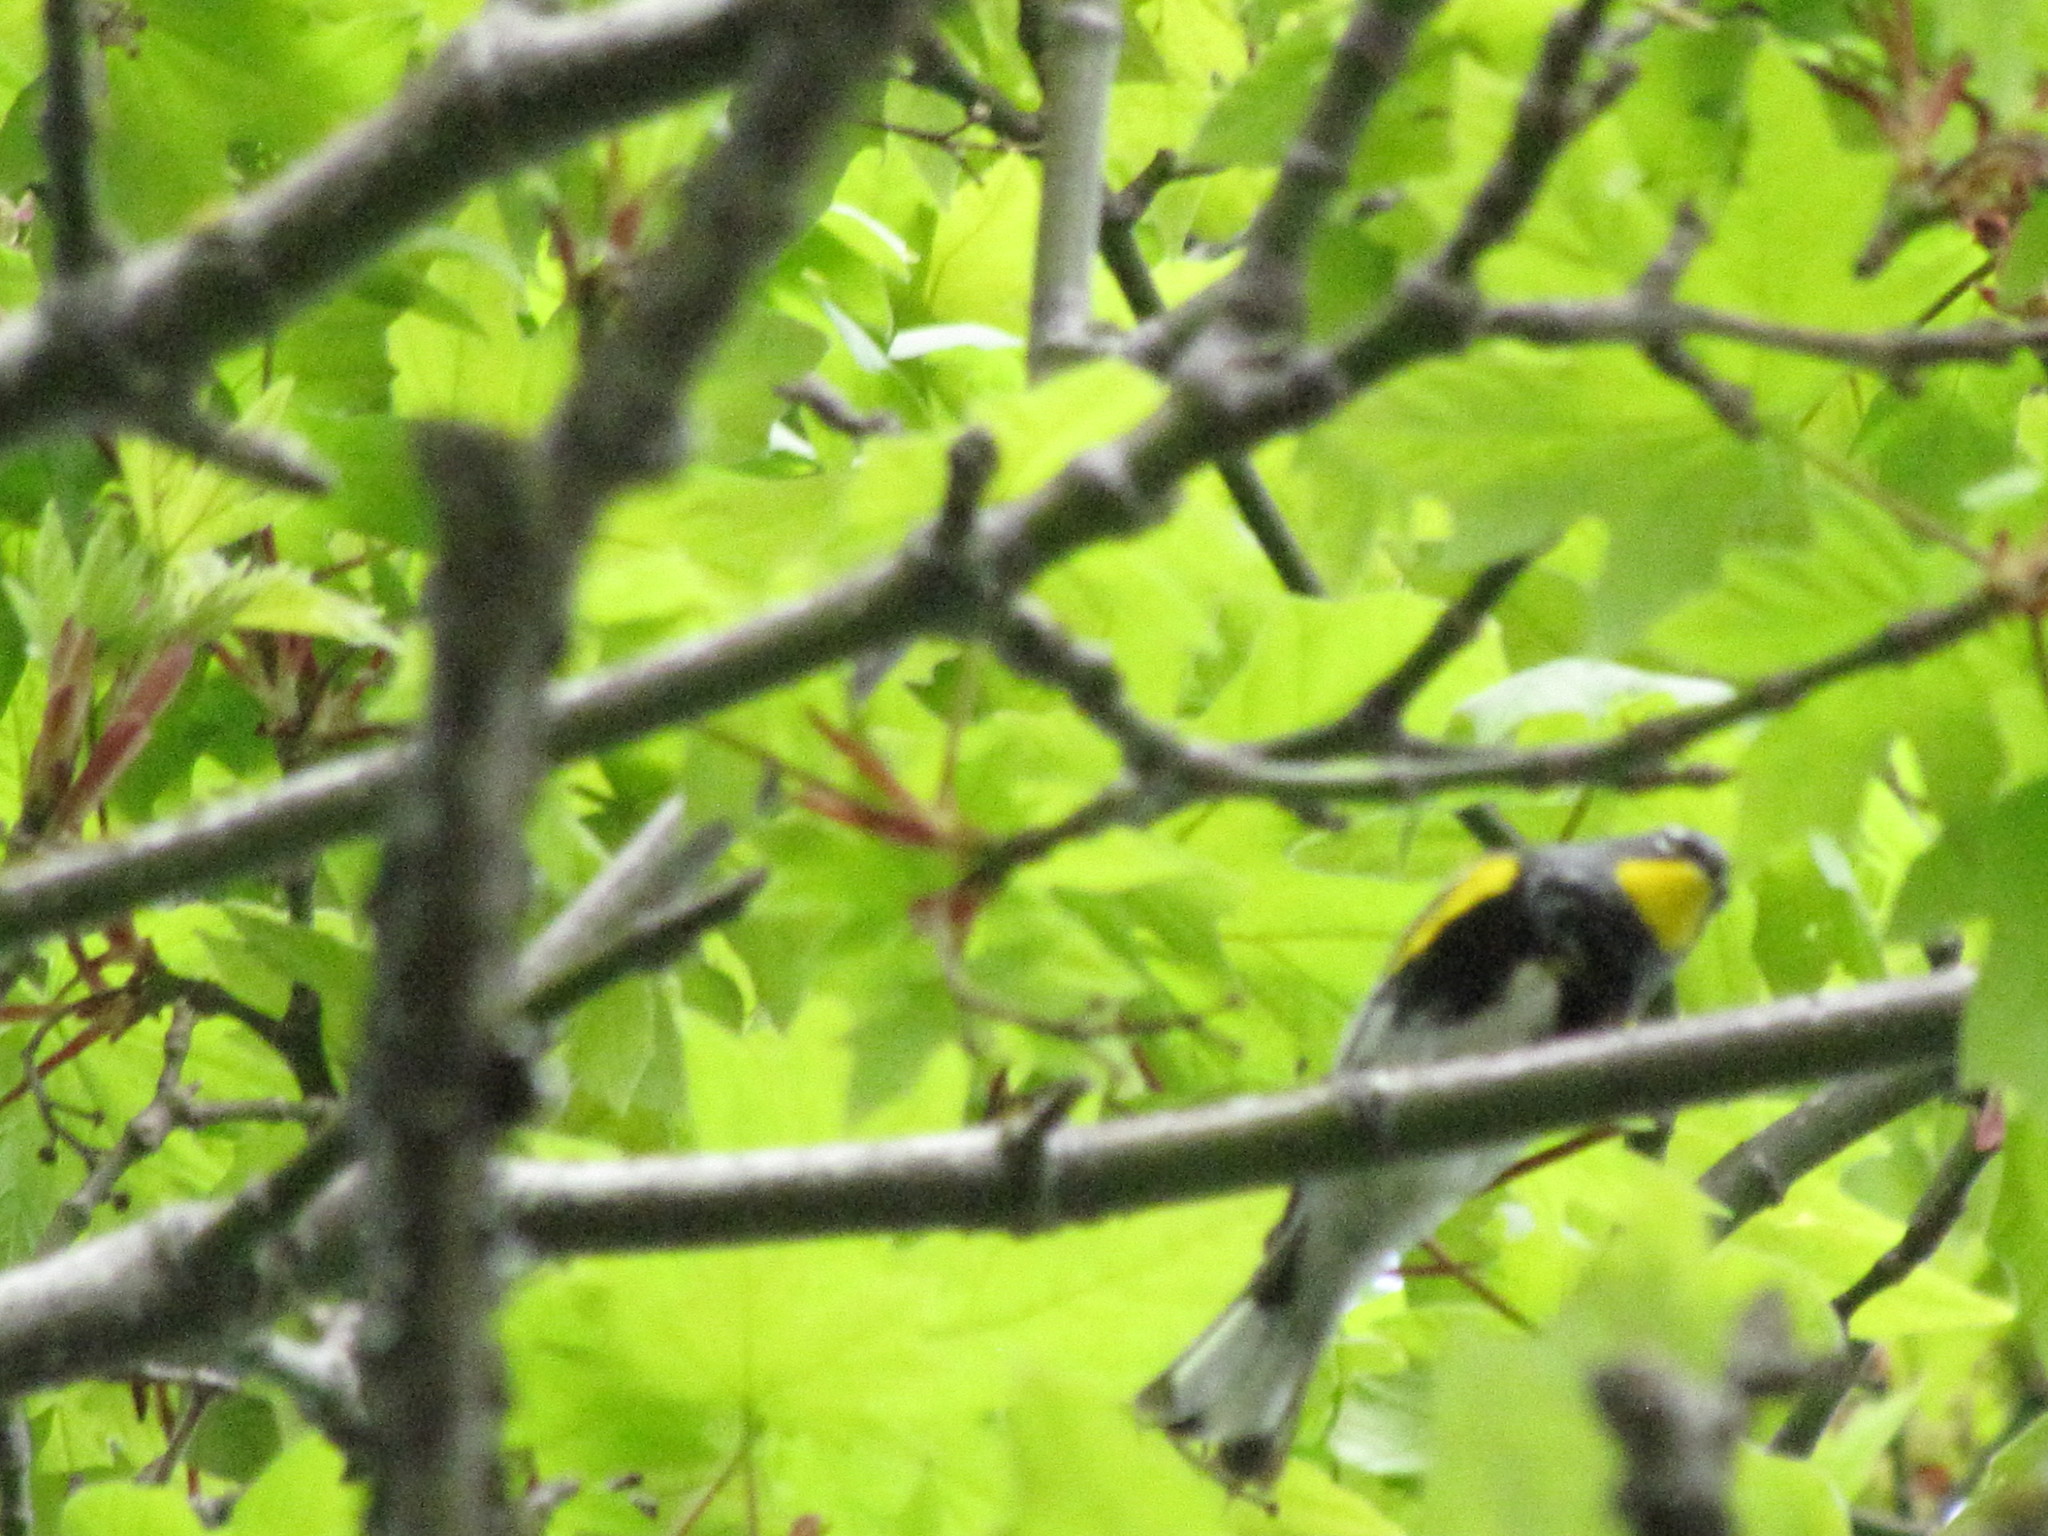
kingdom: Animalia
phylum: Chordata
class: Aves
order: Passeriformes
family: Parulidae
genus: Setophaga
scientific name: Setophaga auduboni
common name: Audubon's warbler
